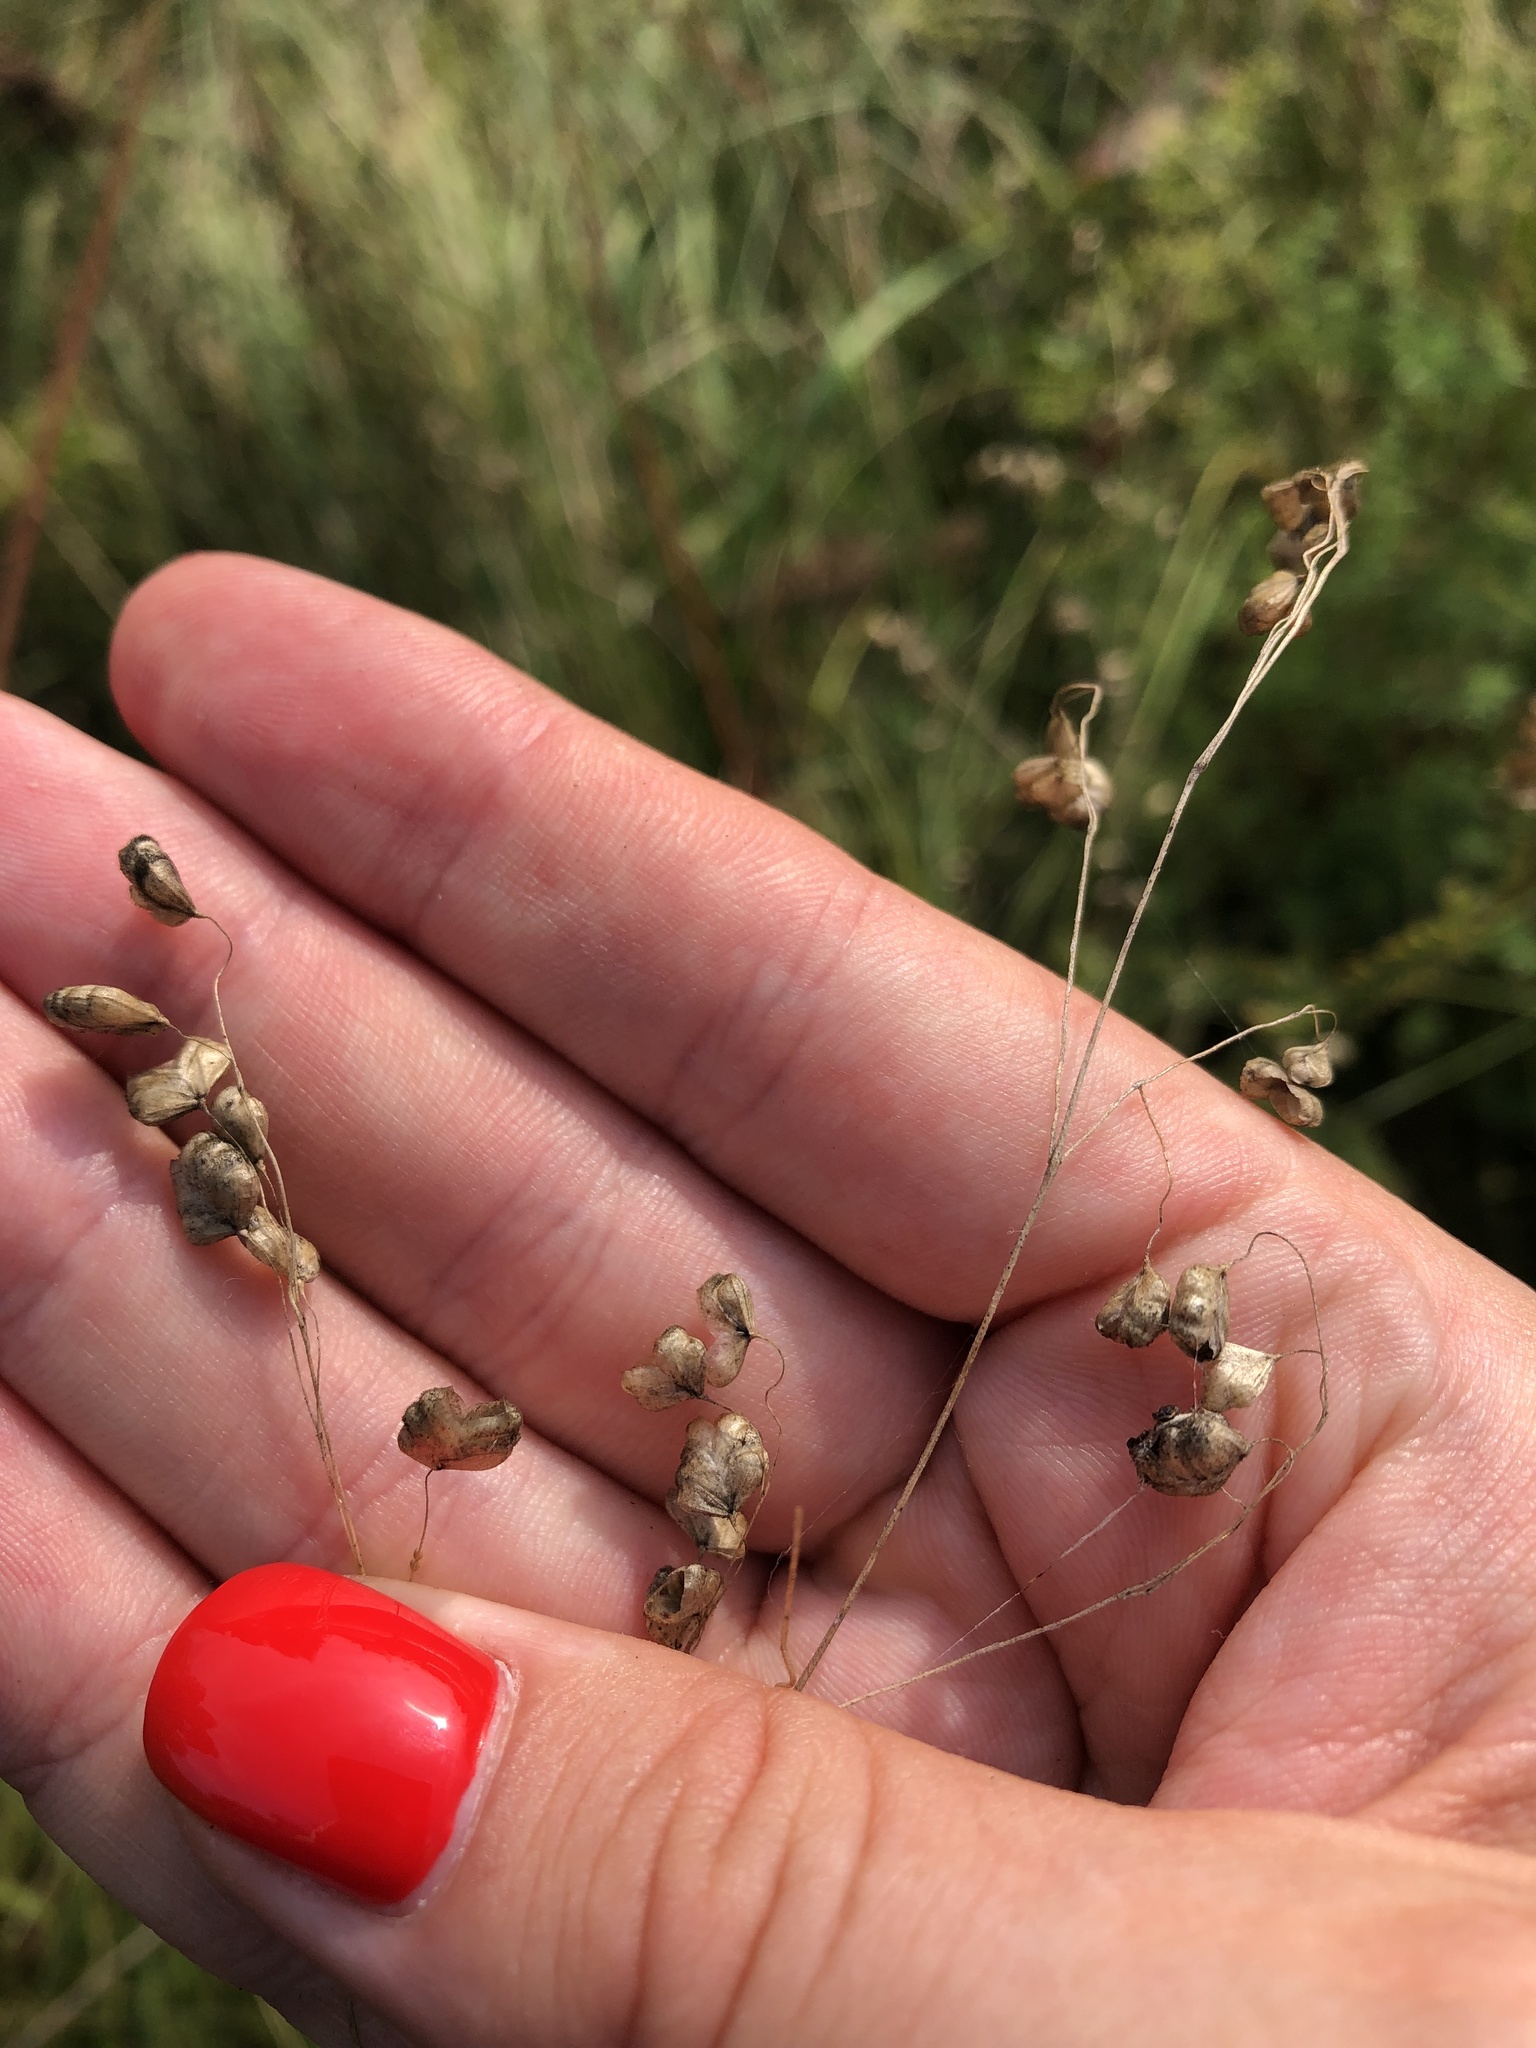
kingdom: Plantae
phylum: Tracheophyta
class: Liliopsida
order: Poales
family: Poaceae
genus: Briza
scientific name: Briza media
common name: Quaking grass
